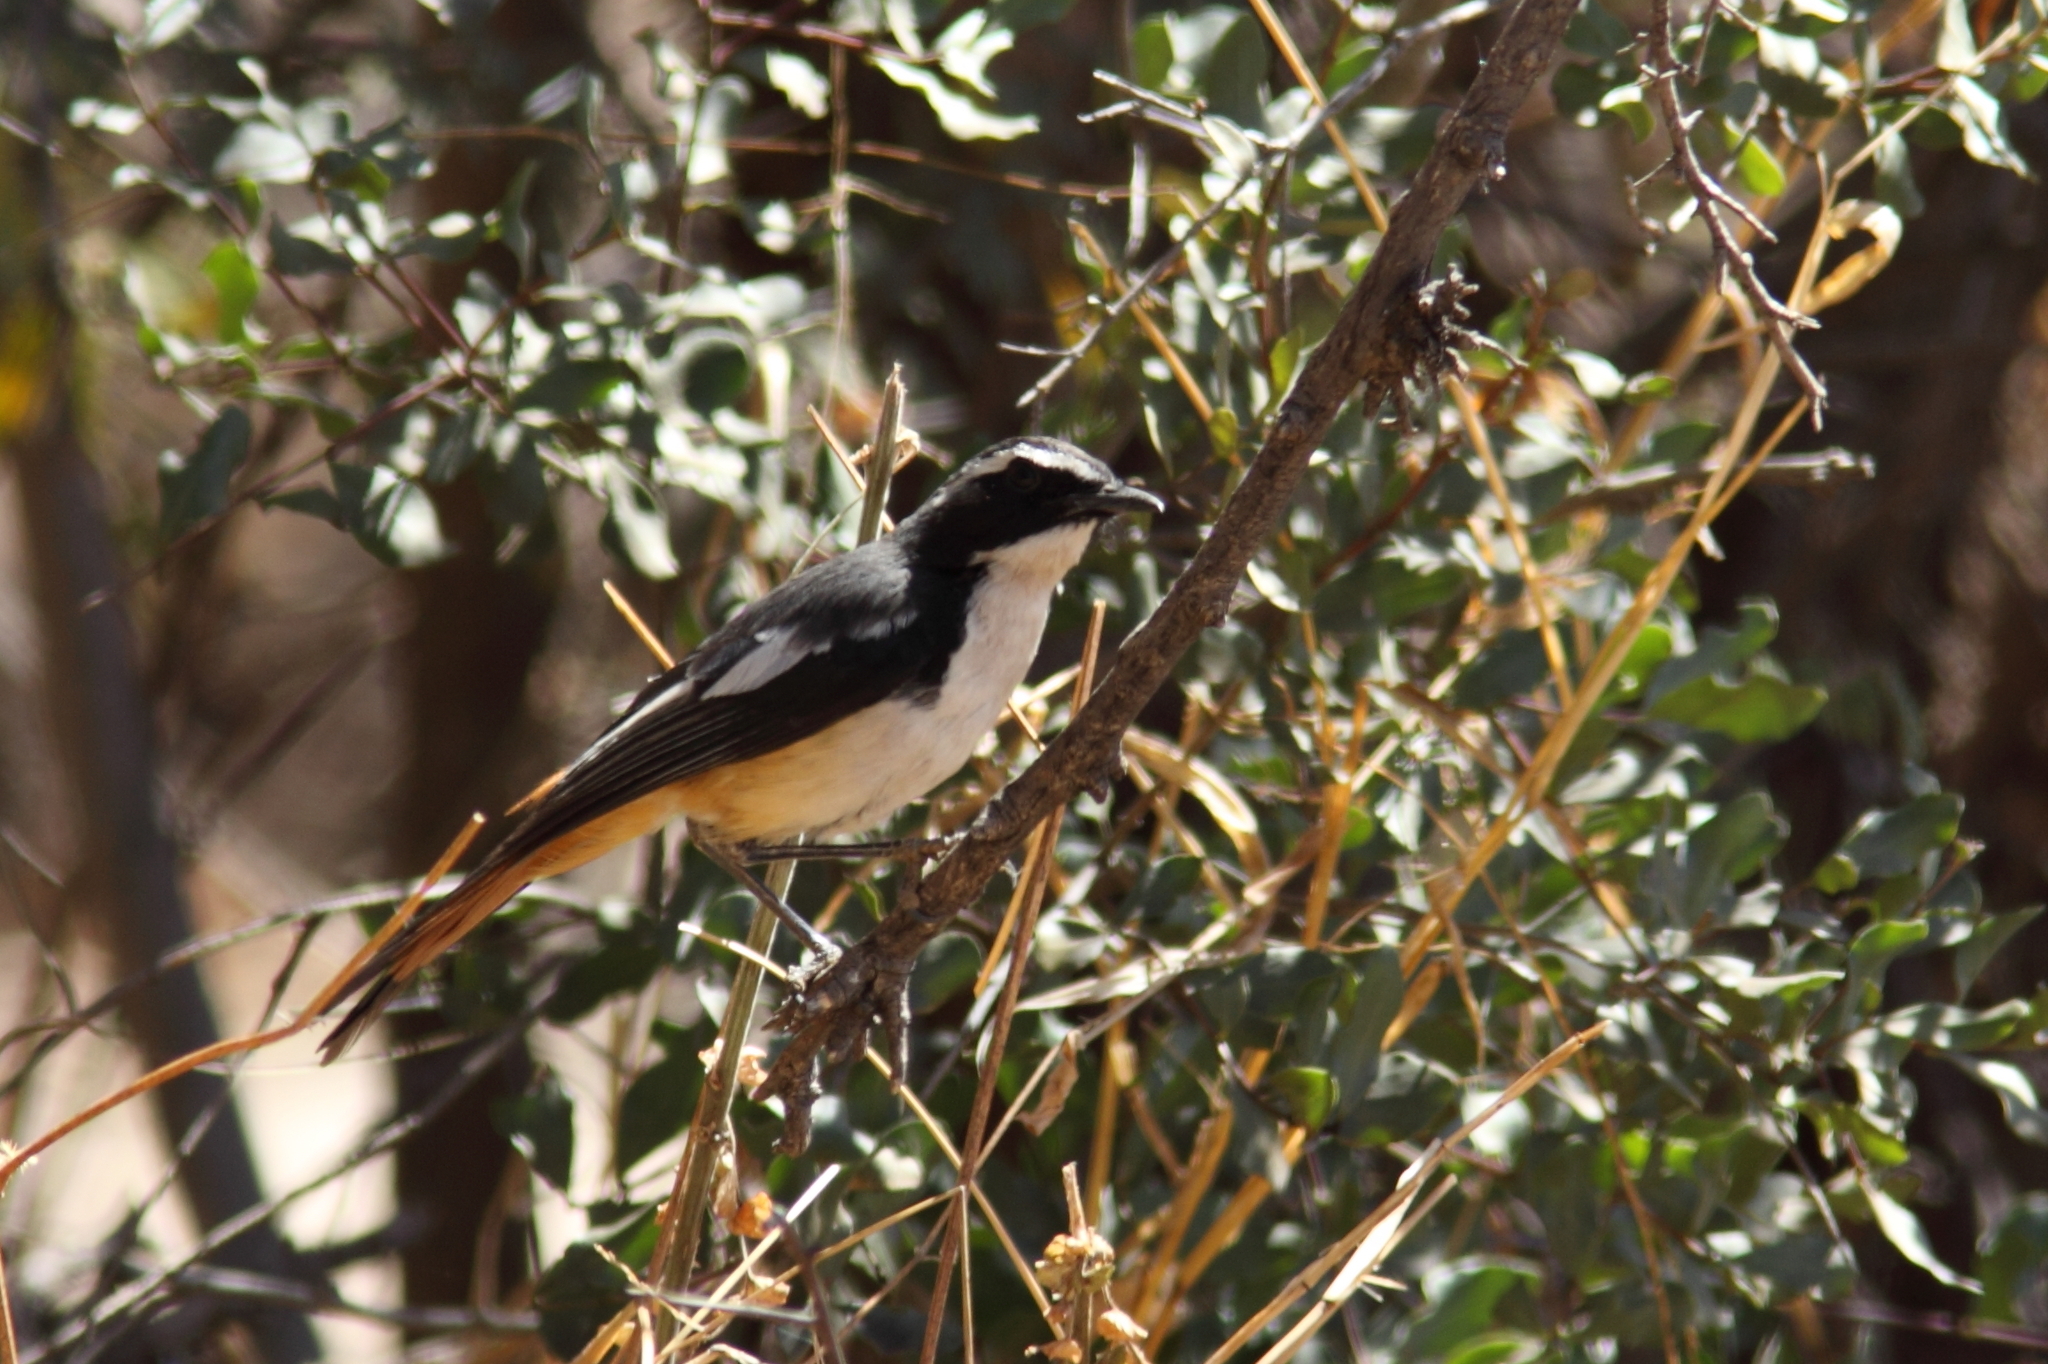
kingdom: Animalia
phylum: Chordata
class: Aves
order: Passeriformes
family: Muscicapidae
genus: Cossypha
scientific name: Cossypha humeralis
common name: White-throated robin-chat
